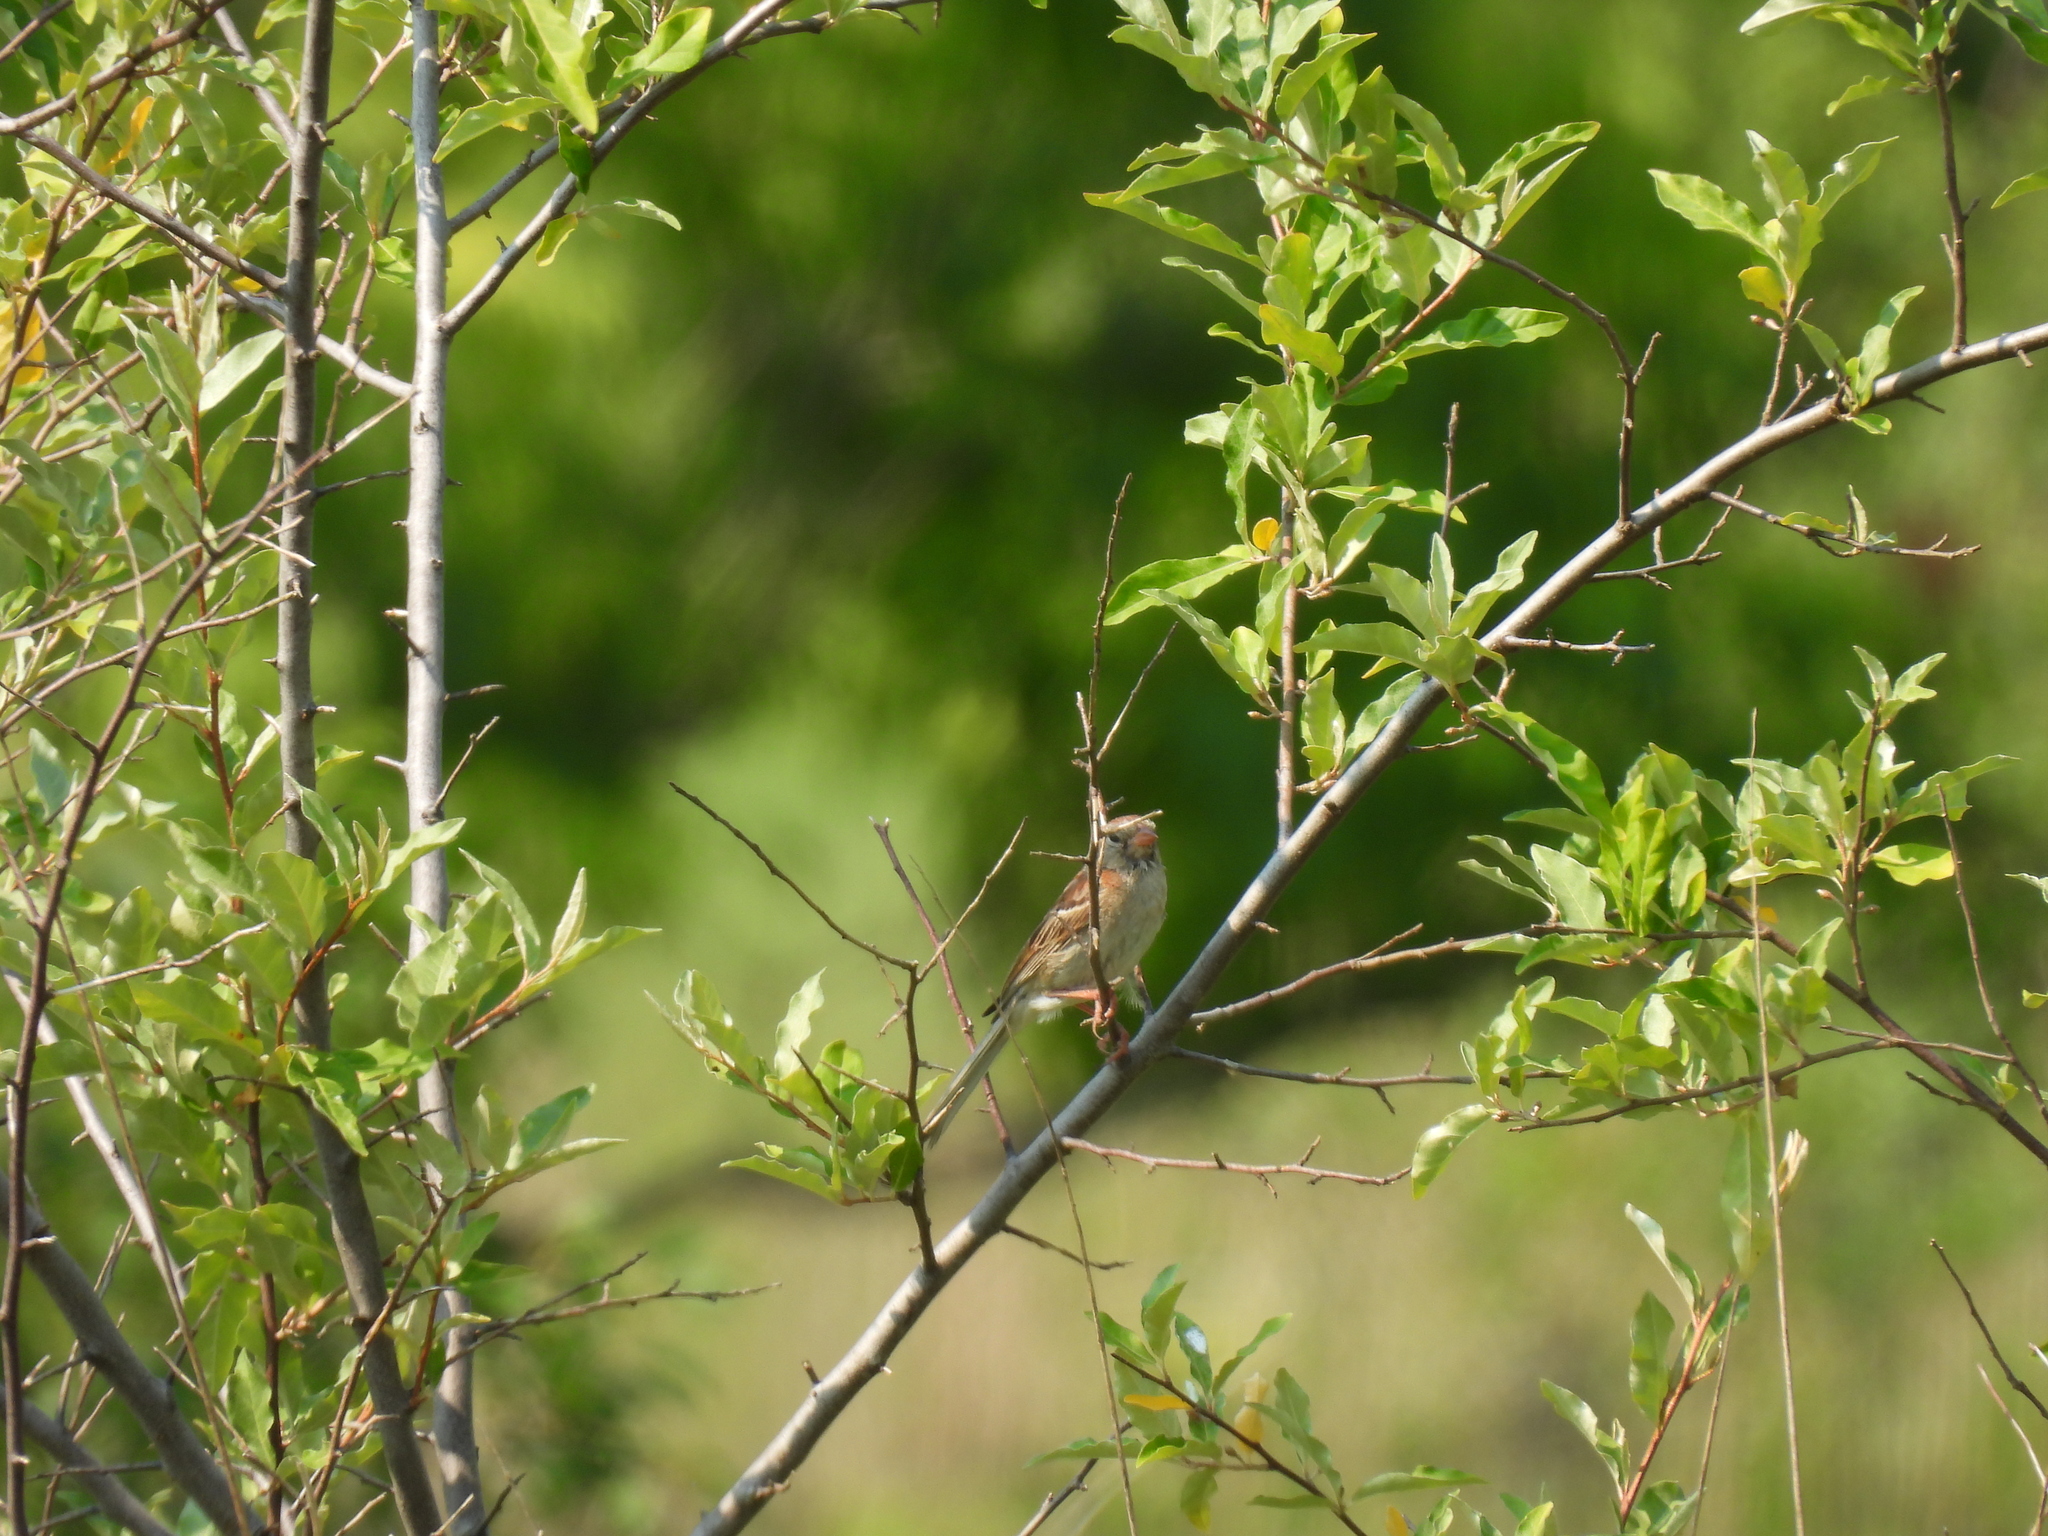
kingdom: Animalia
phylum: Chordata
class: Aves
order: Passeriformes
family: Passerellidae
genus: Spizella
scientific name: Spizella pusilla
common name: Field sparrow
